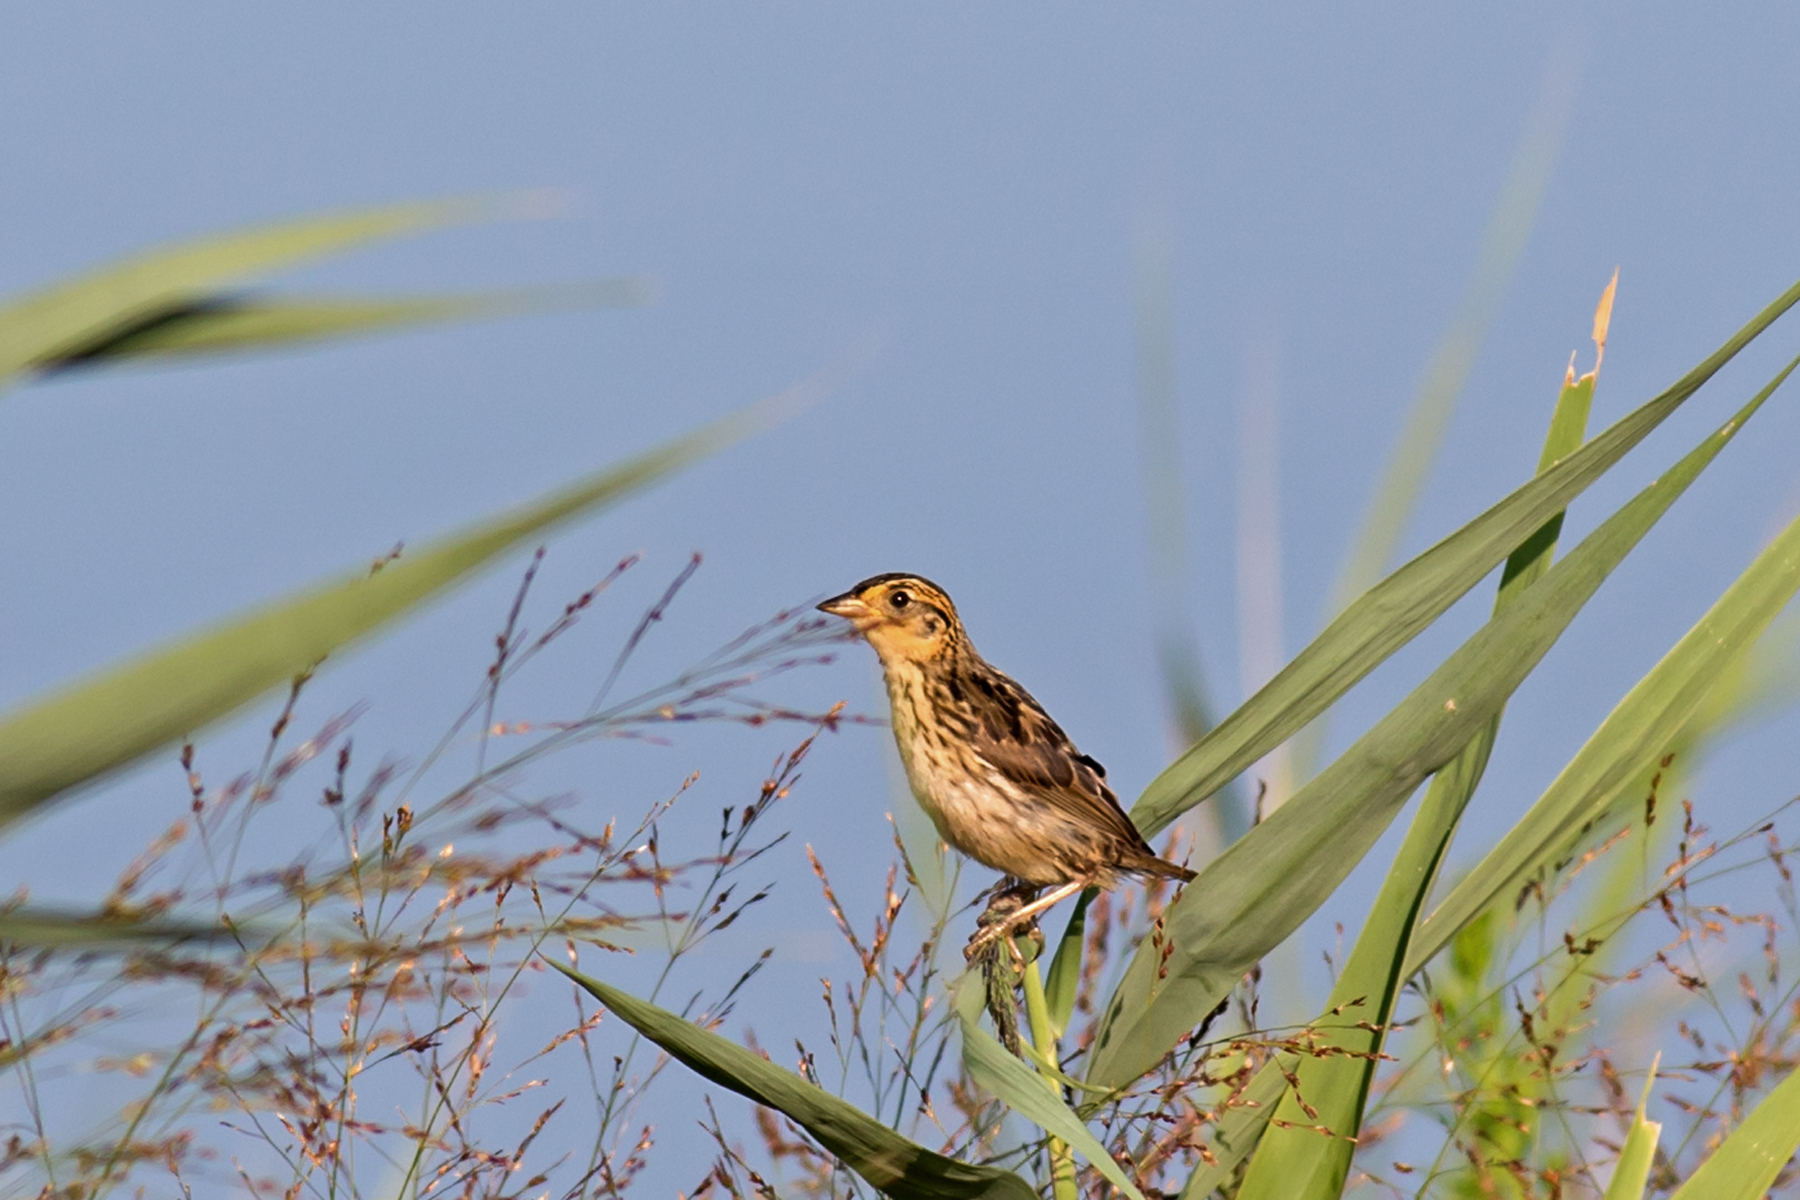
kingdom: Animalia
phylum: Chordata
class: Aves
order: Passeriformes
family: Passerellidae
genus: Ammospiza
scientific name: Ammospiza caudacuta
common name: Saltmarsh sparrow
